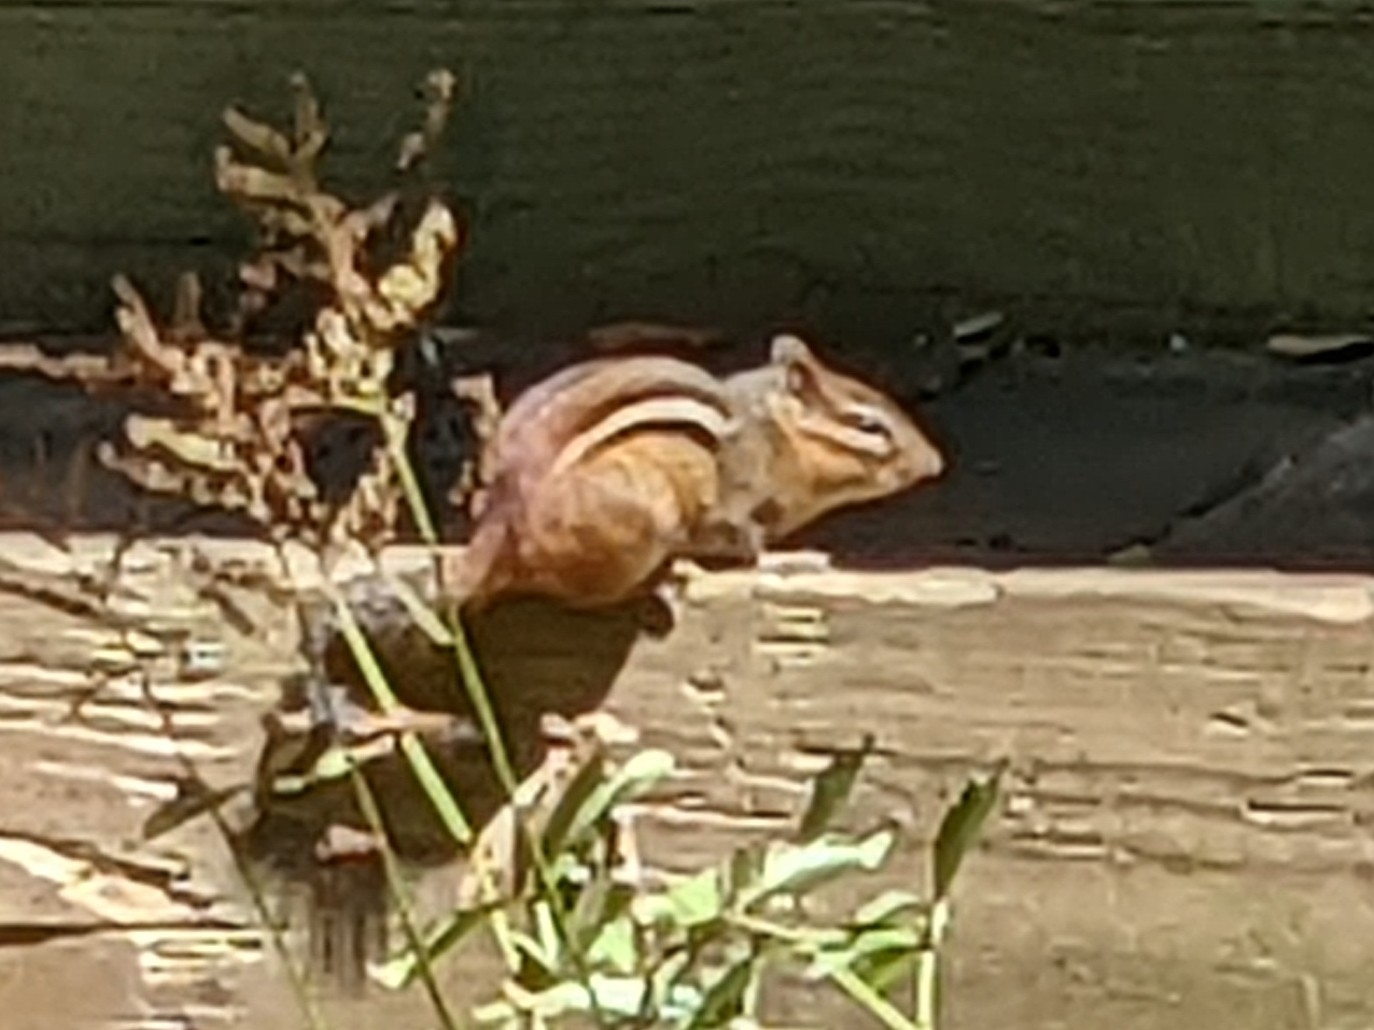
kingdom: Animalia
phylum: Chordata
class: Mammalia
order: Rodentia
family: Sciuridae
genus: Tamias
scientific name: Tamias striatus
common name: Eastern chipmunk
